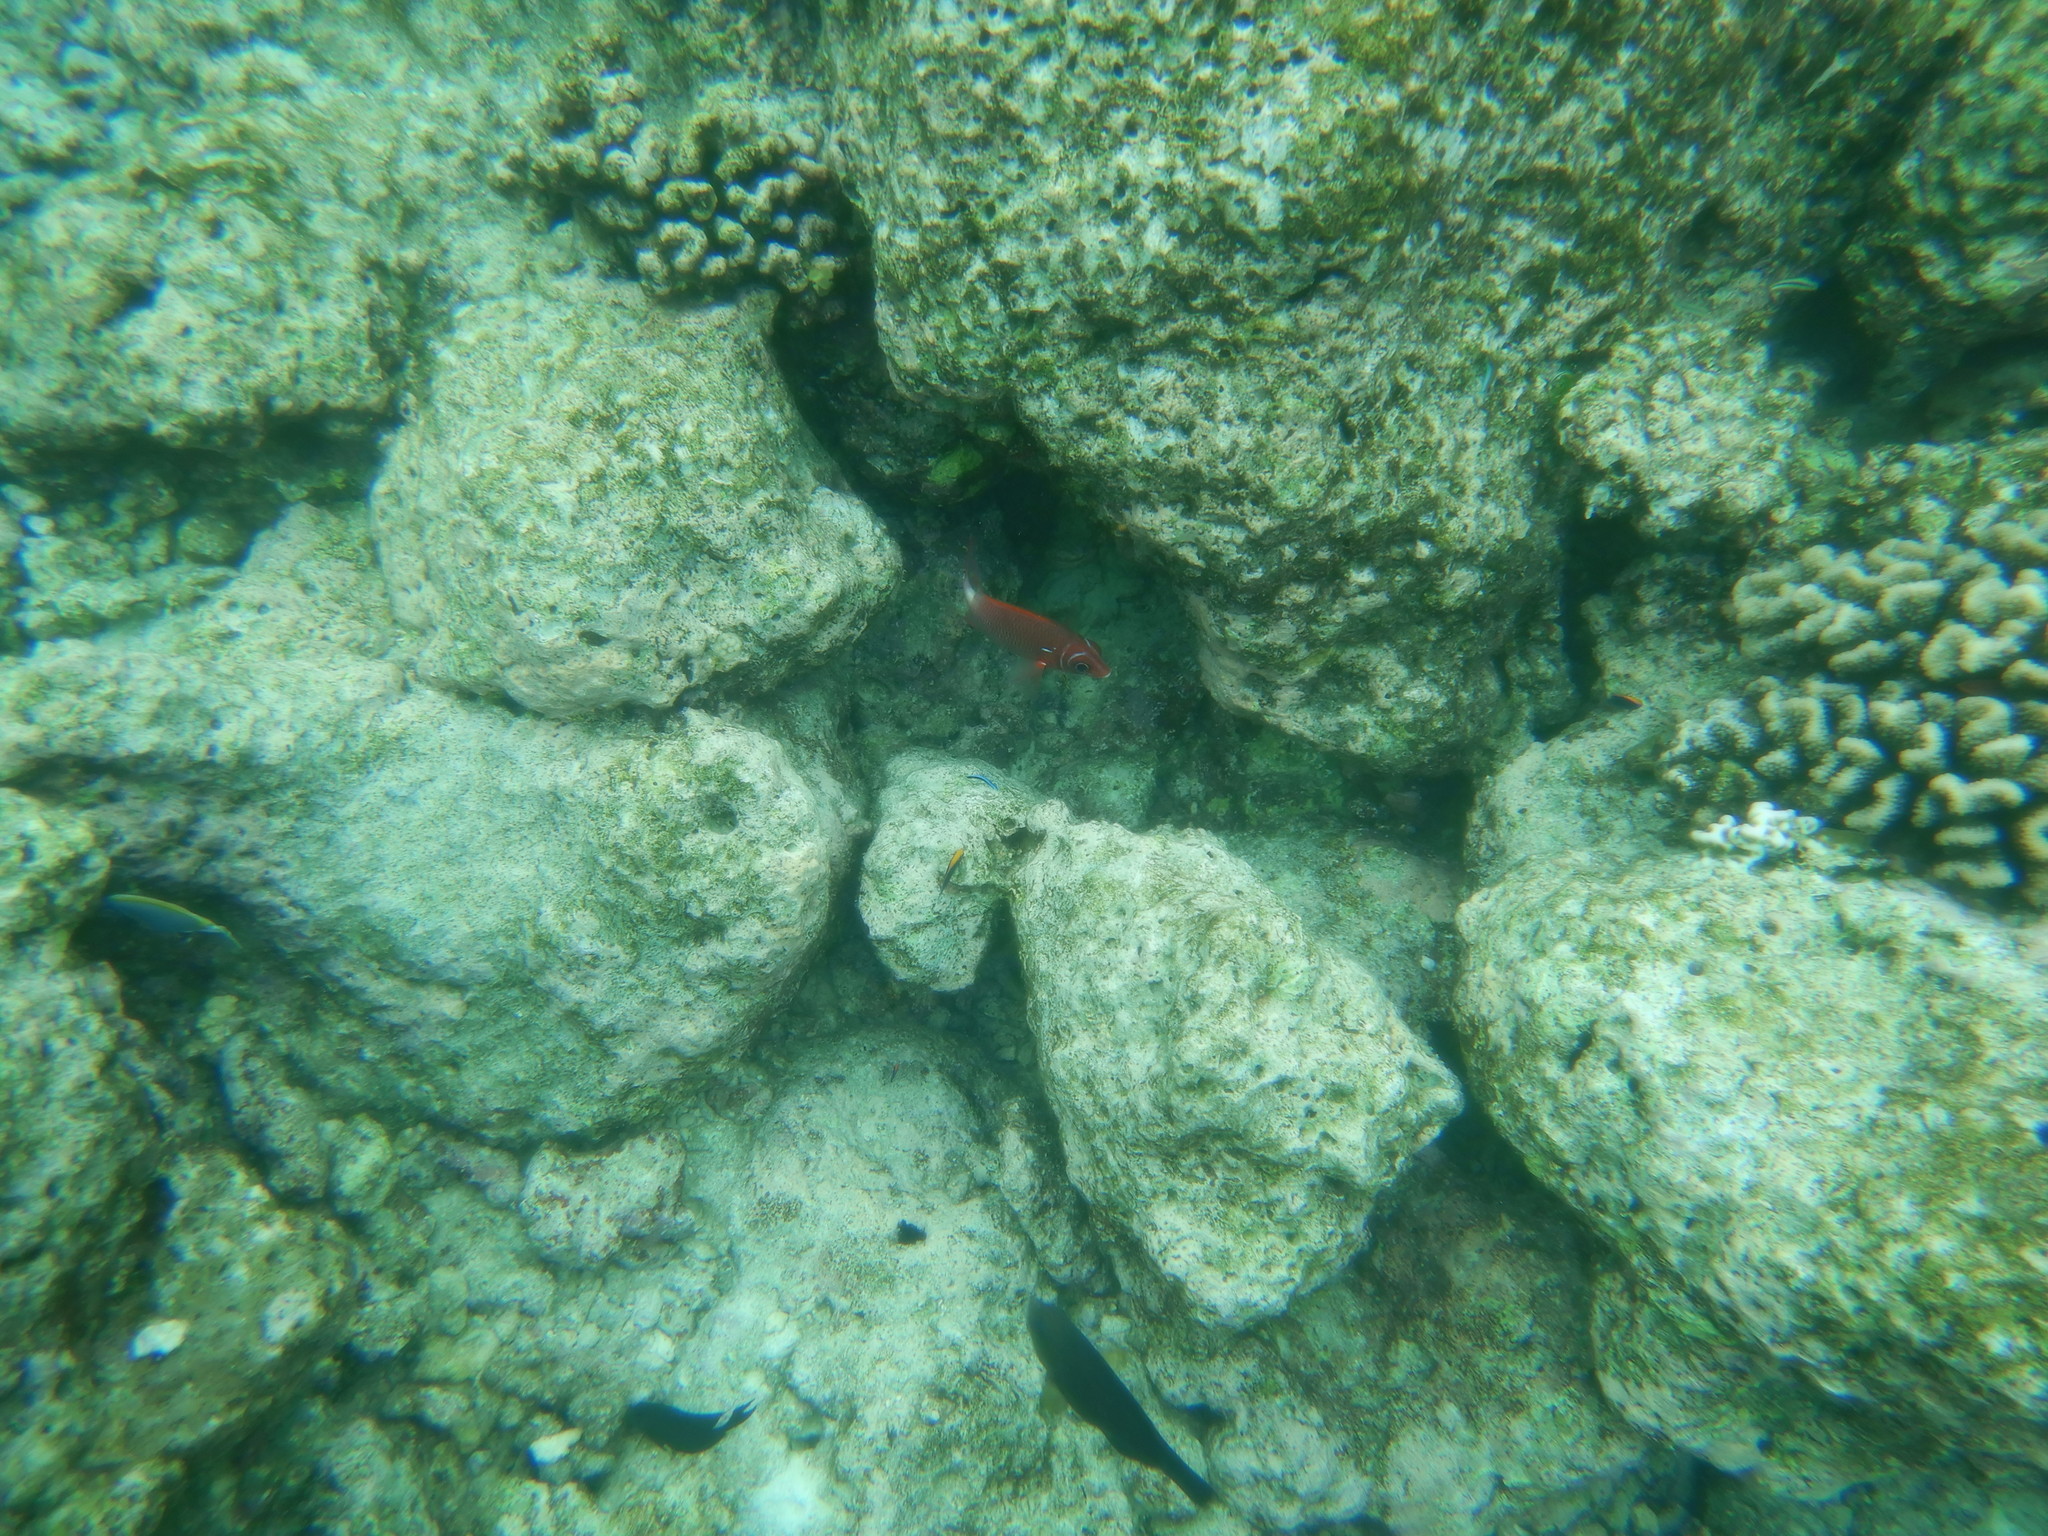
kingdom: Animalia
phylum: Chordata
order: Beryciformes
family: Holocentridae
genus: Sargocentron
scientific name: Sargocentron caudimaculatum
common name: Fanfin soldier
